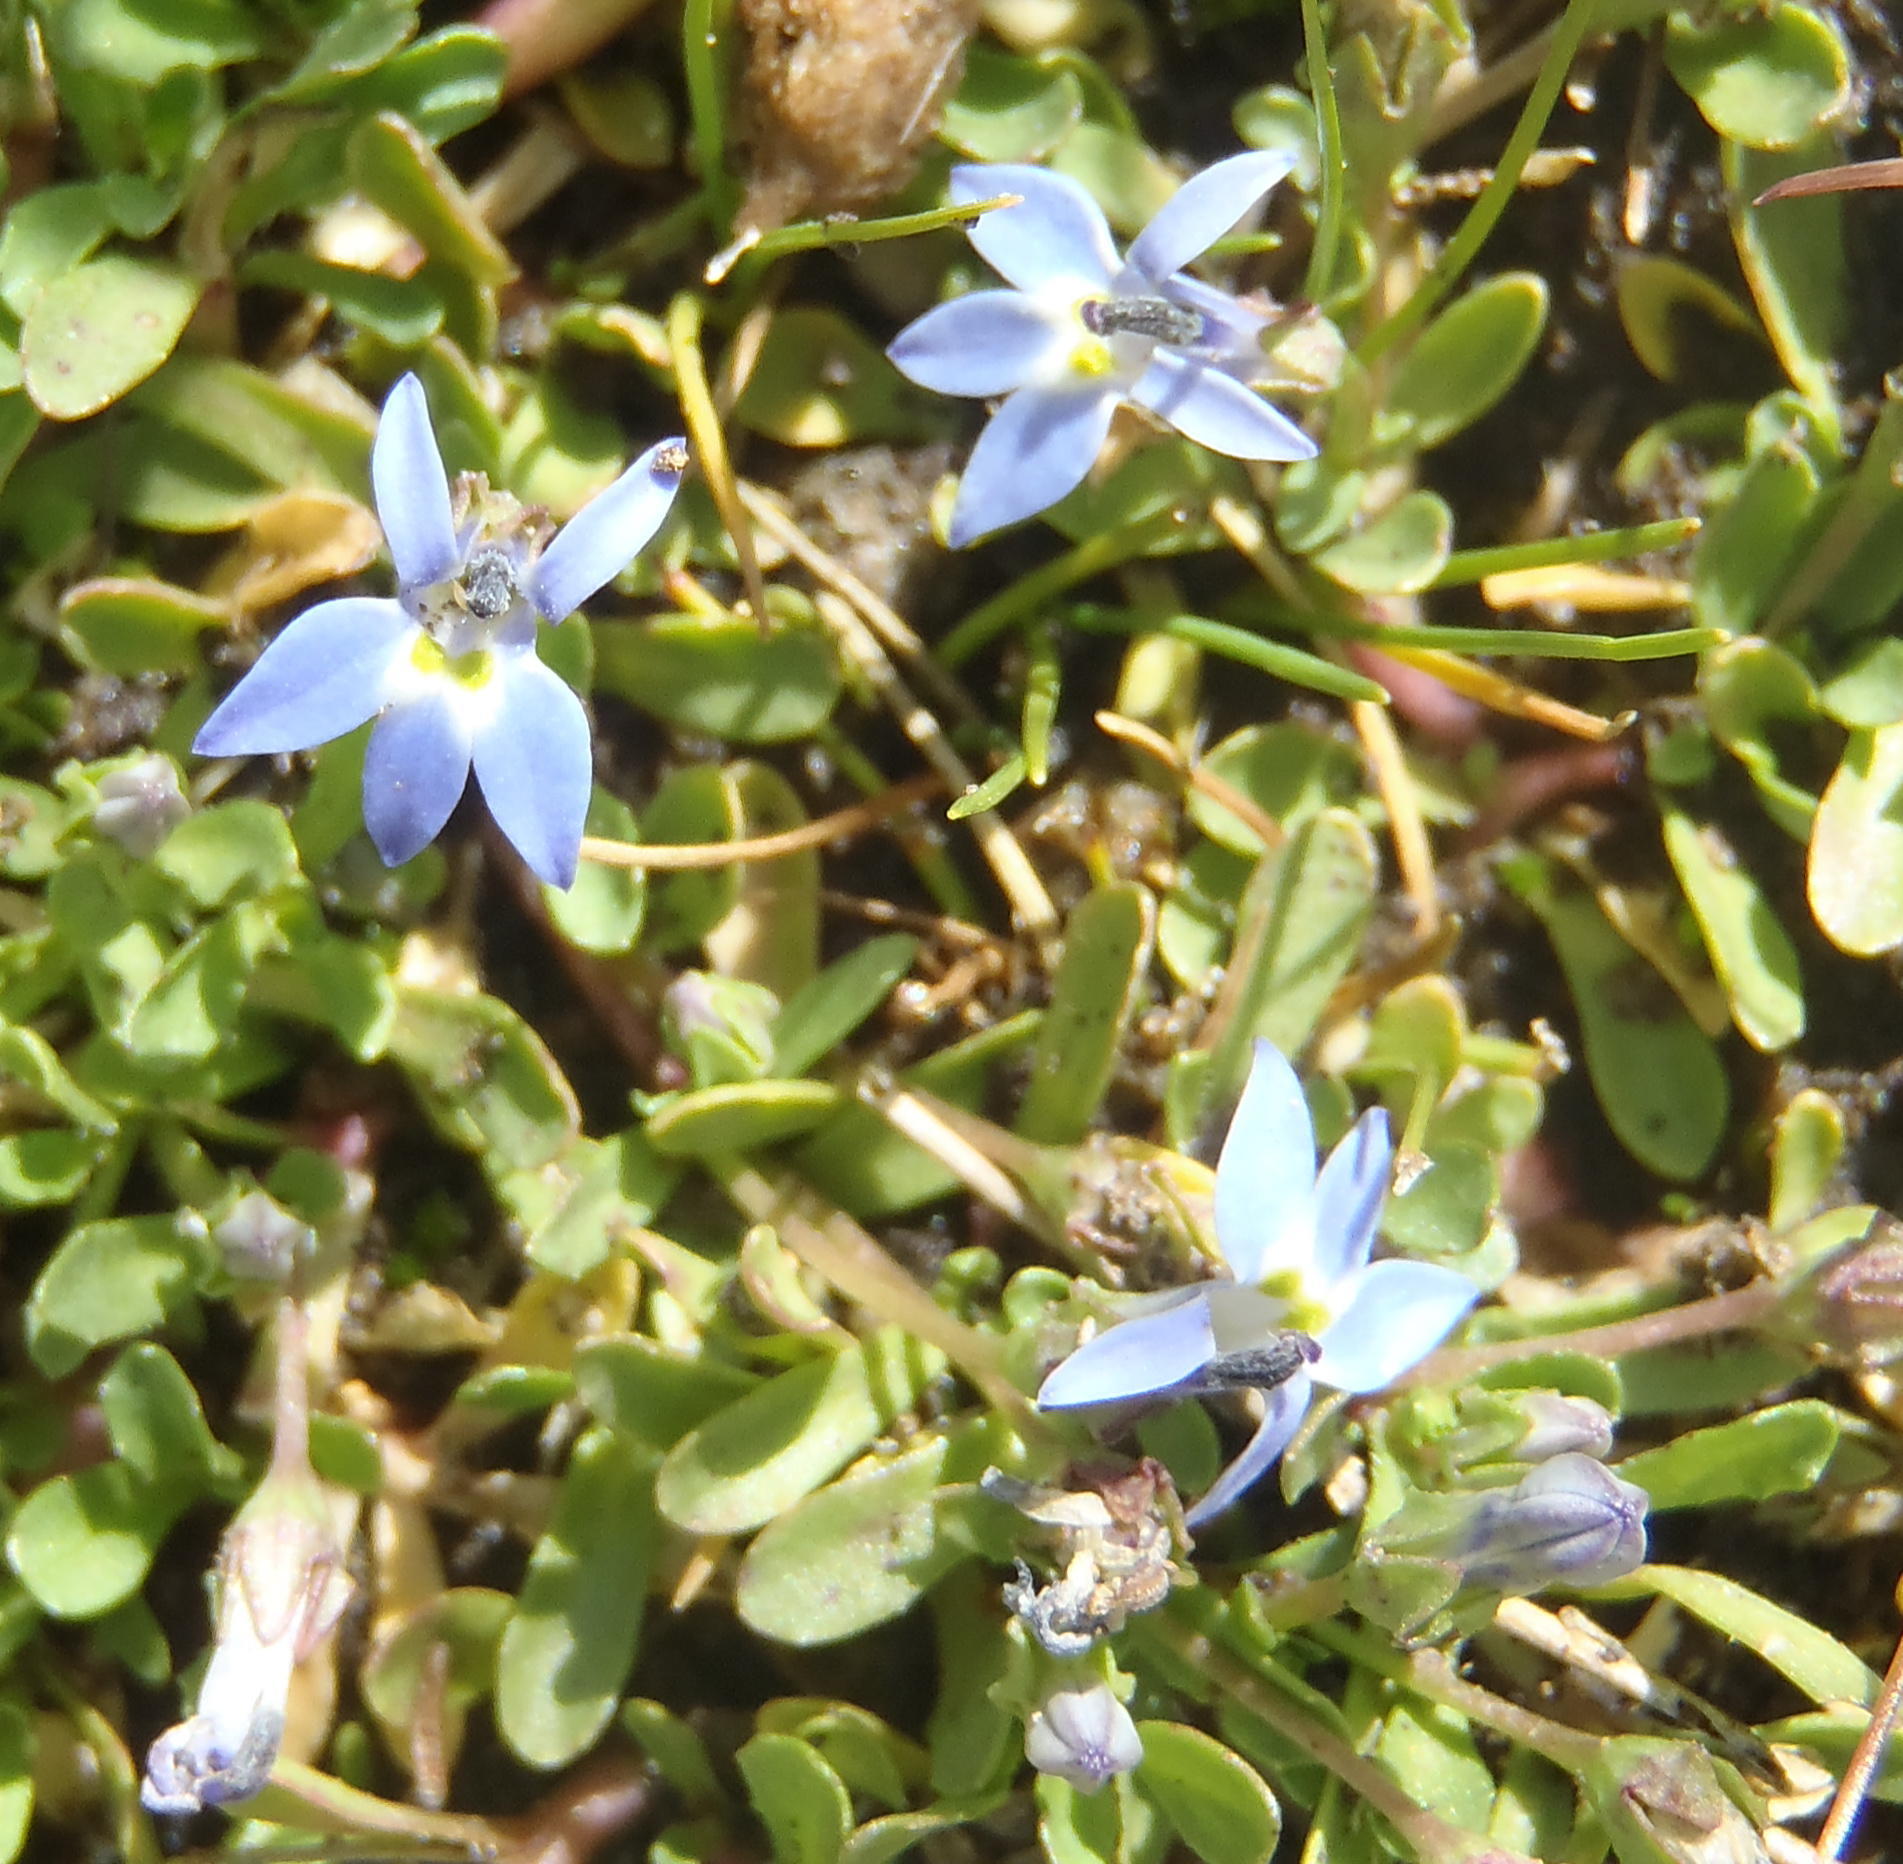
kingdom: Plantae
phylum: Tracheophyta
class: Magnoliopsida
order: Asterales
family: Campanulaceae
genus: Lobelia
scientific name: Lobelia galpinii
